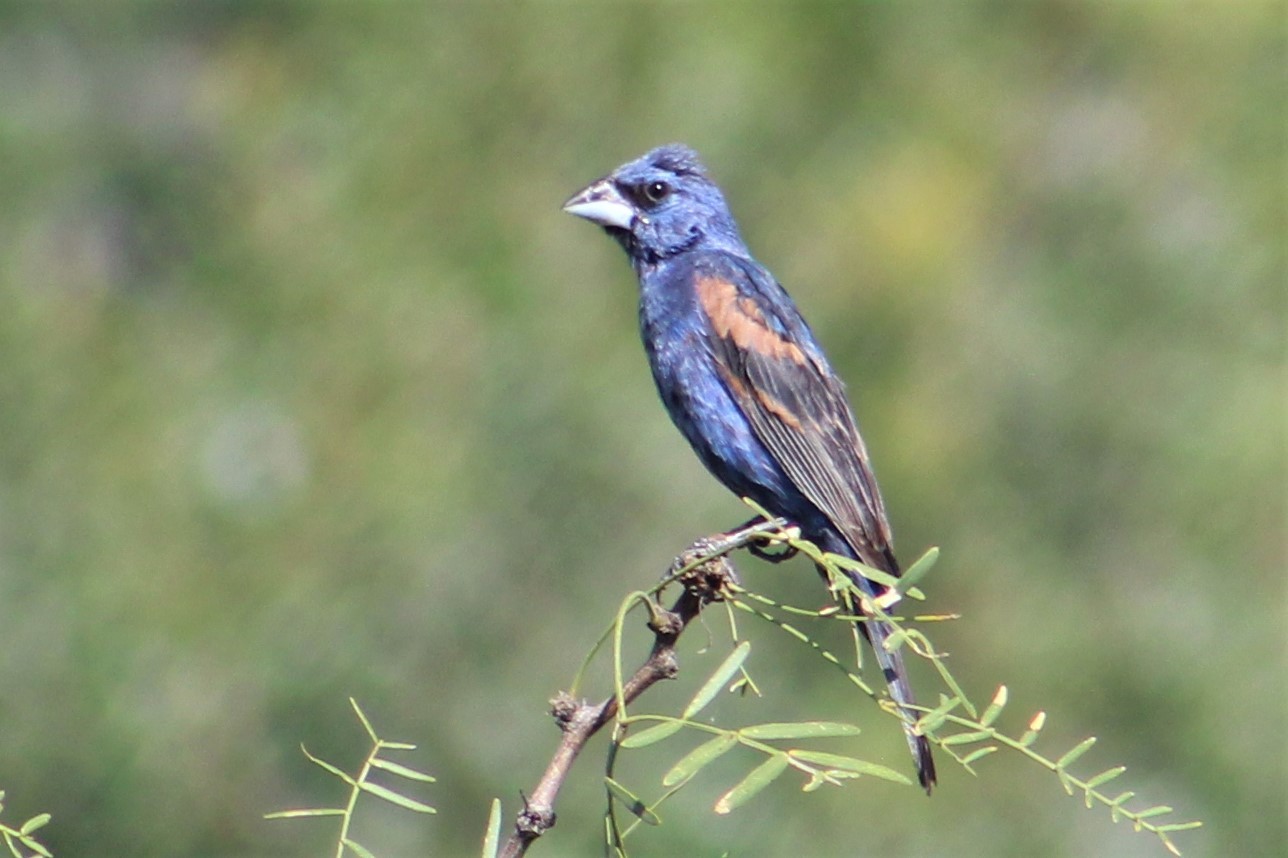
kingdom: Animalia
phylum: Chordata
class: Aves
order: Passeriformes
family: Cardinalidae
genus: Passerina
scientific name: Passerina caerulea
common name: Blue grosbeak
